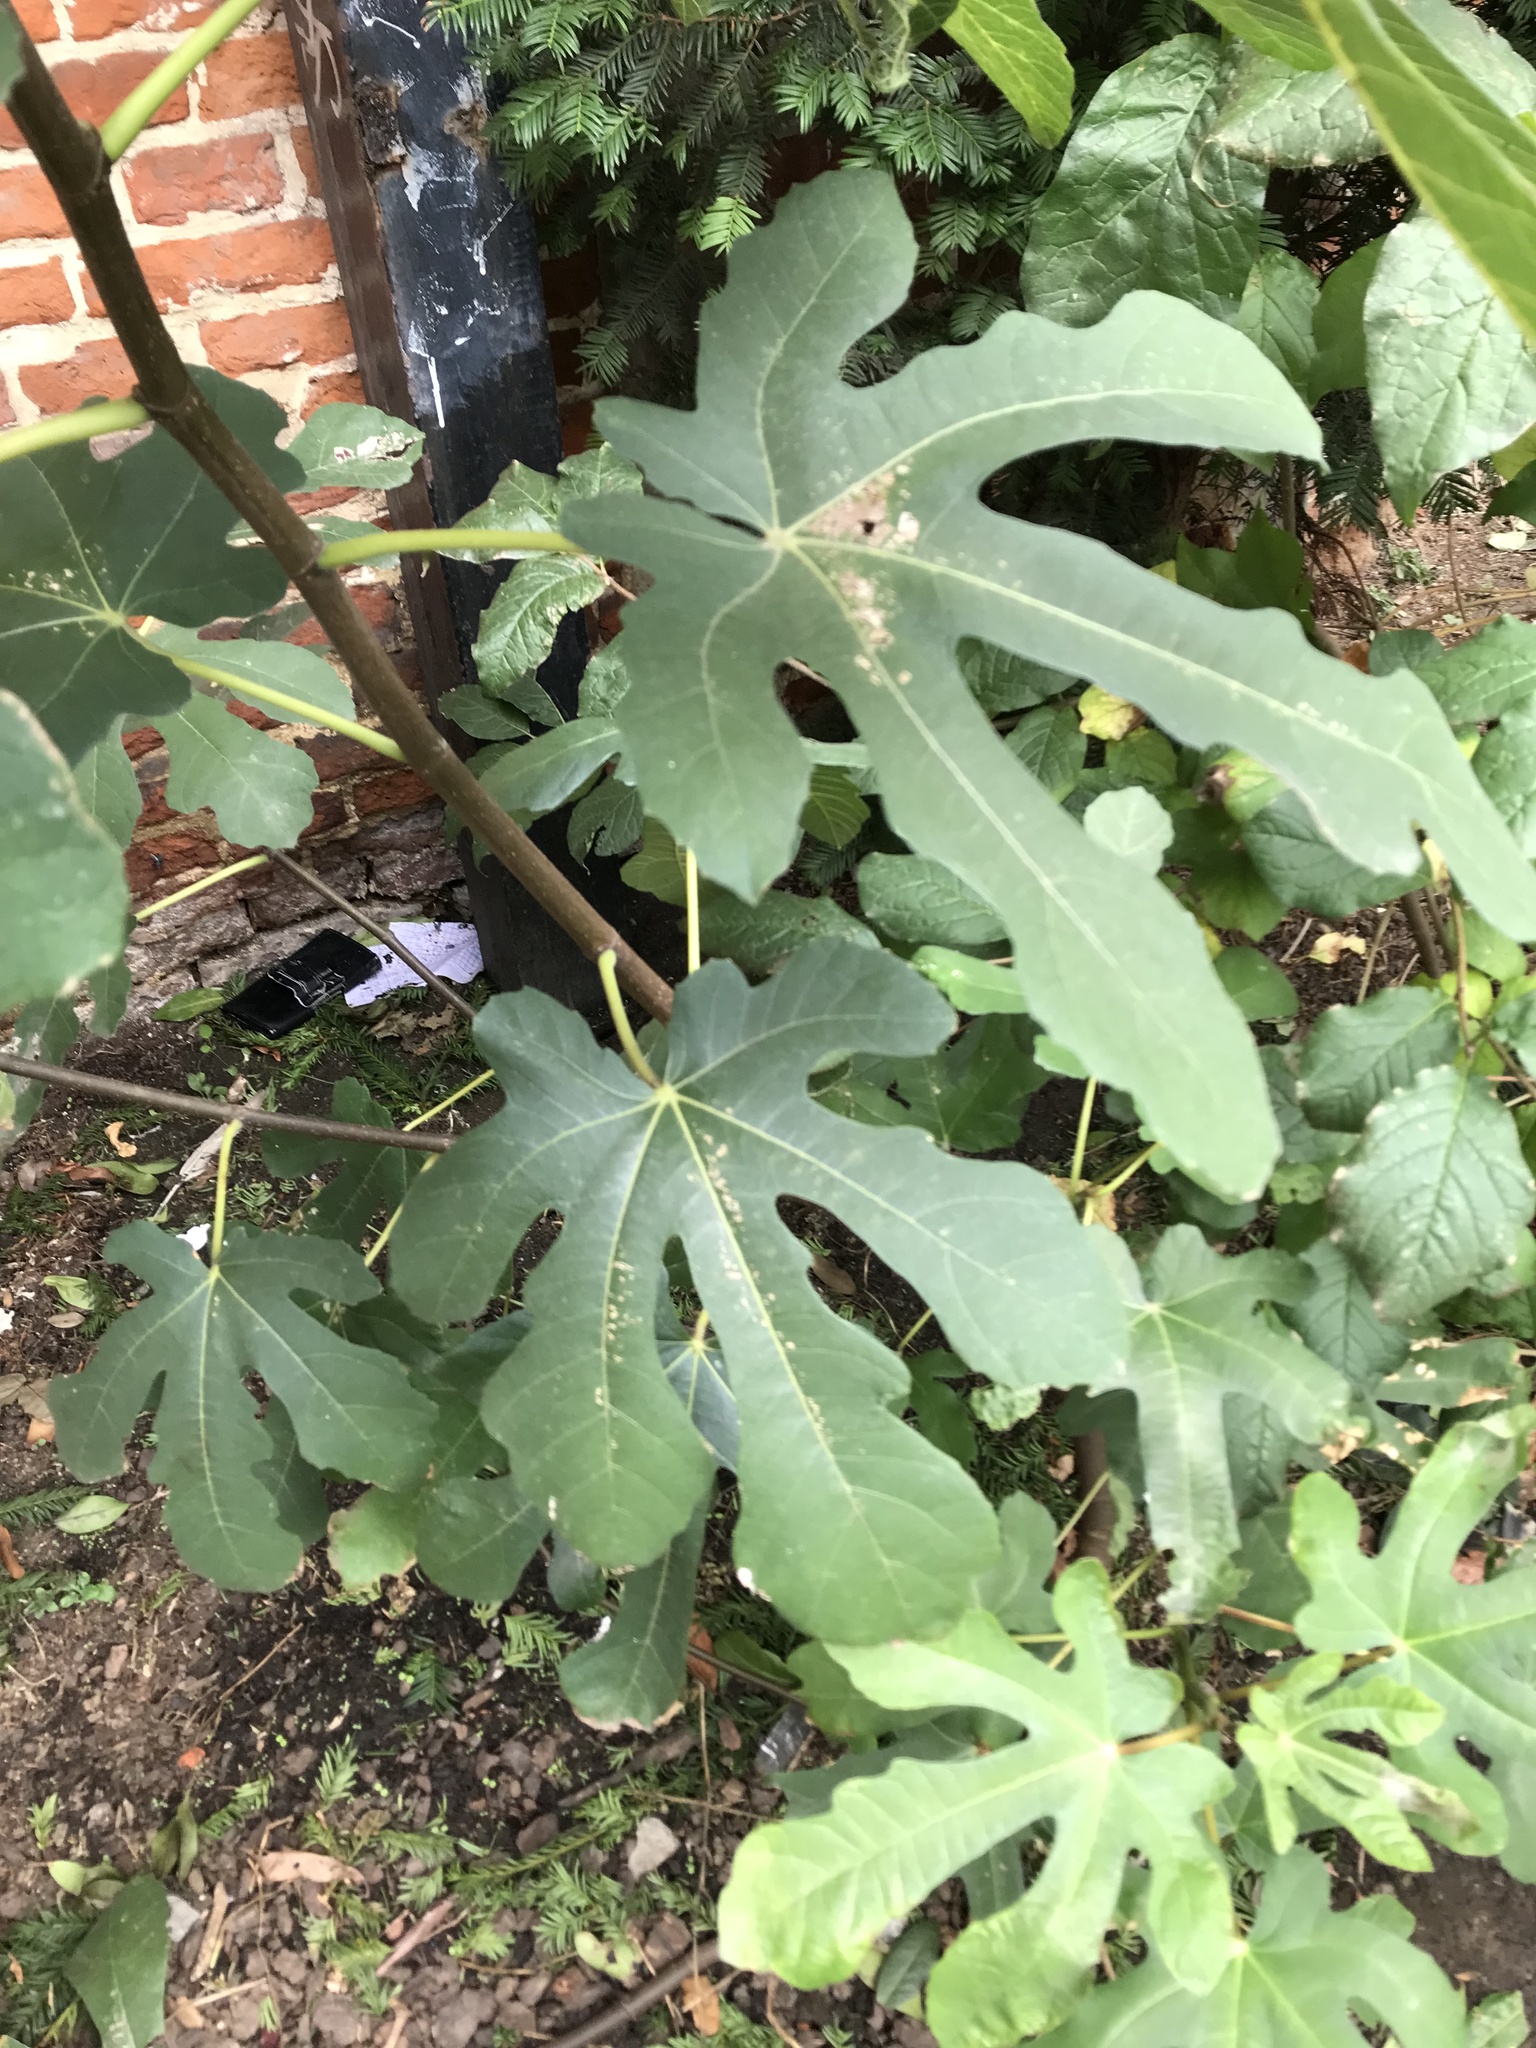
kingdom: Plantae
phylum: Tracheophyta
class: Magnoliopsida
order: Rosales
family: Moraceae
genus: Ficus
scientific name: Ficus carica
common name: Fig
